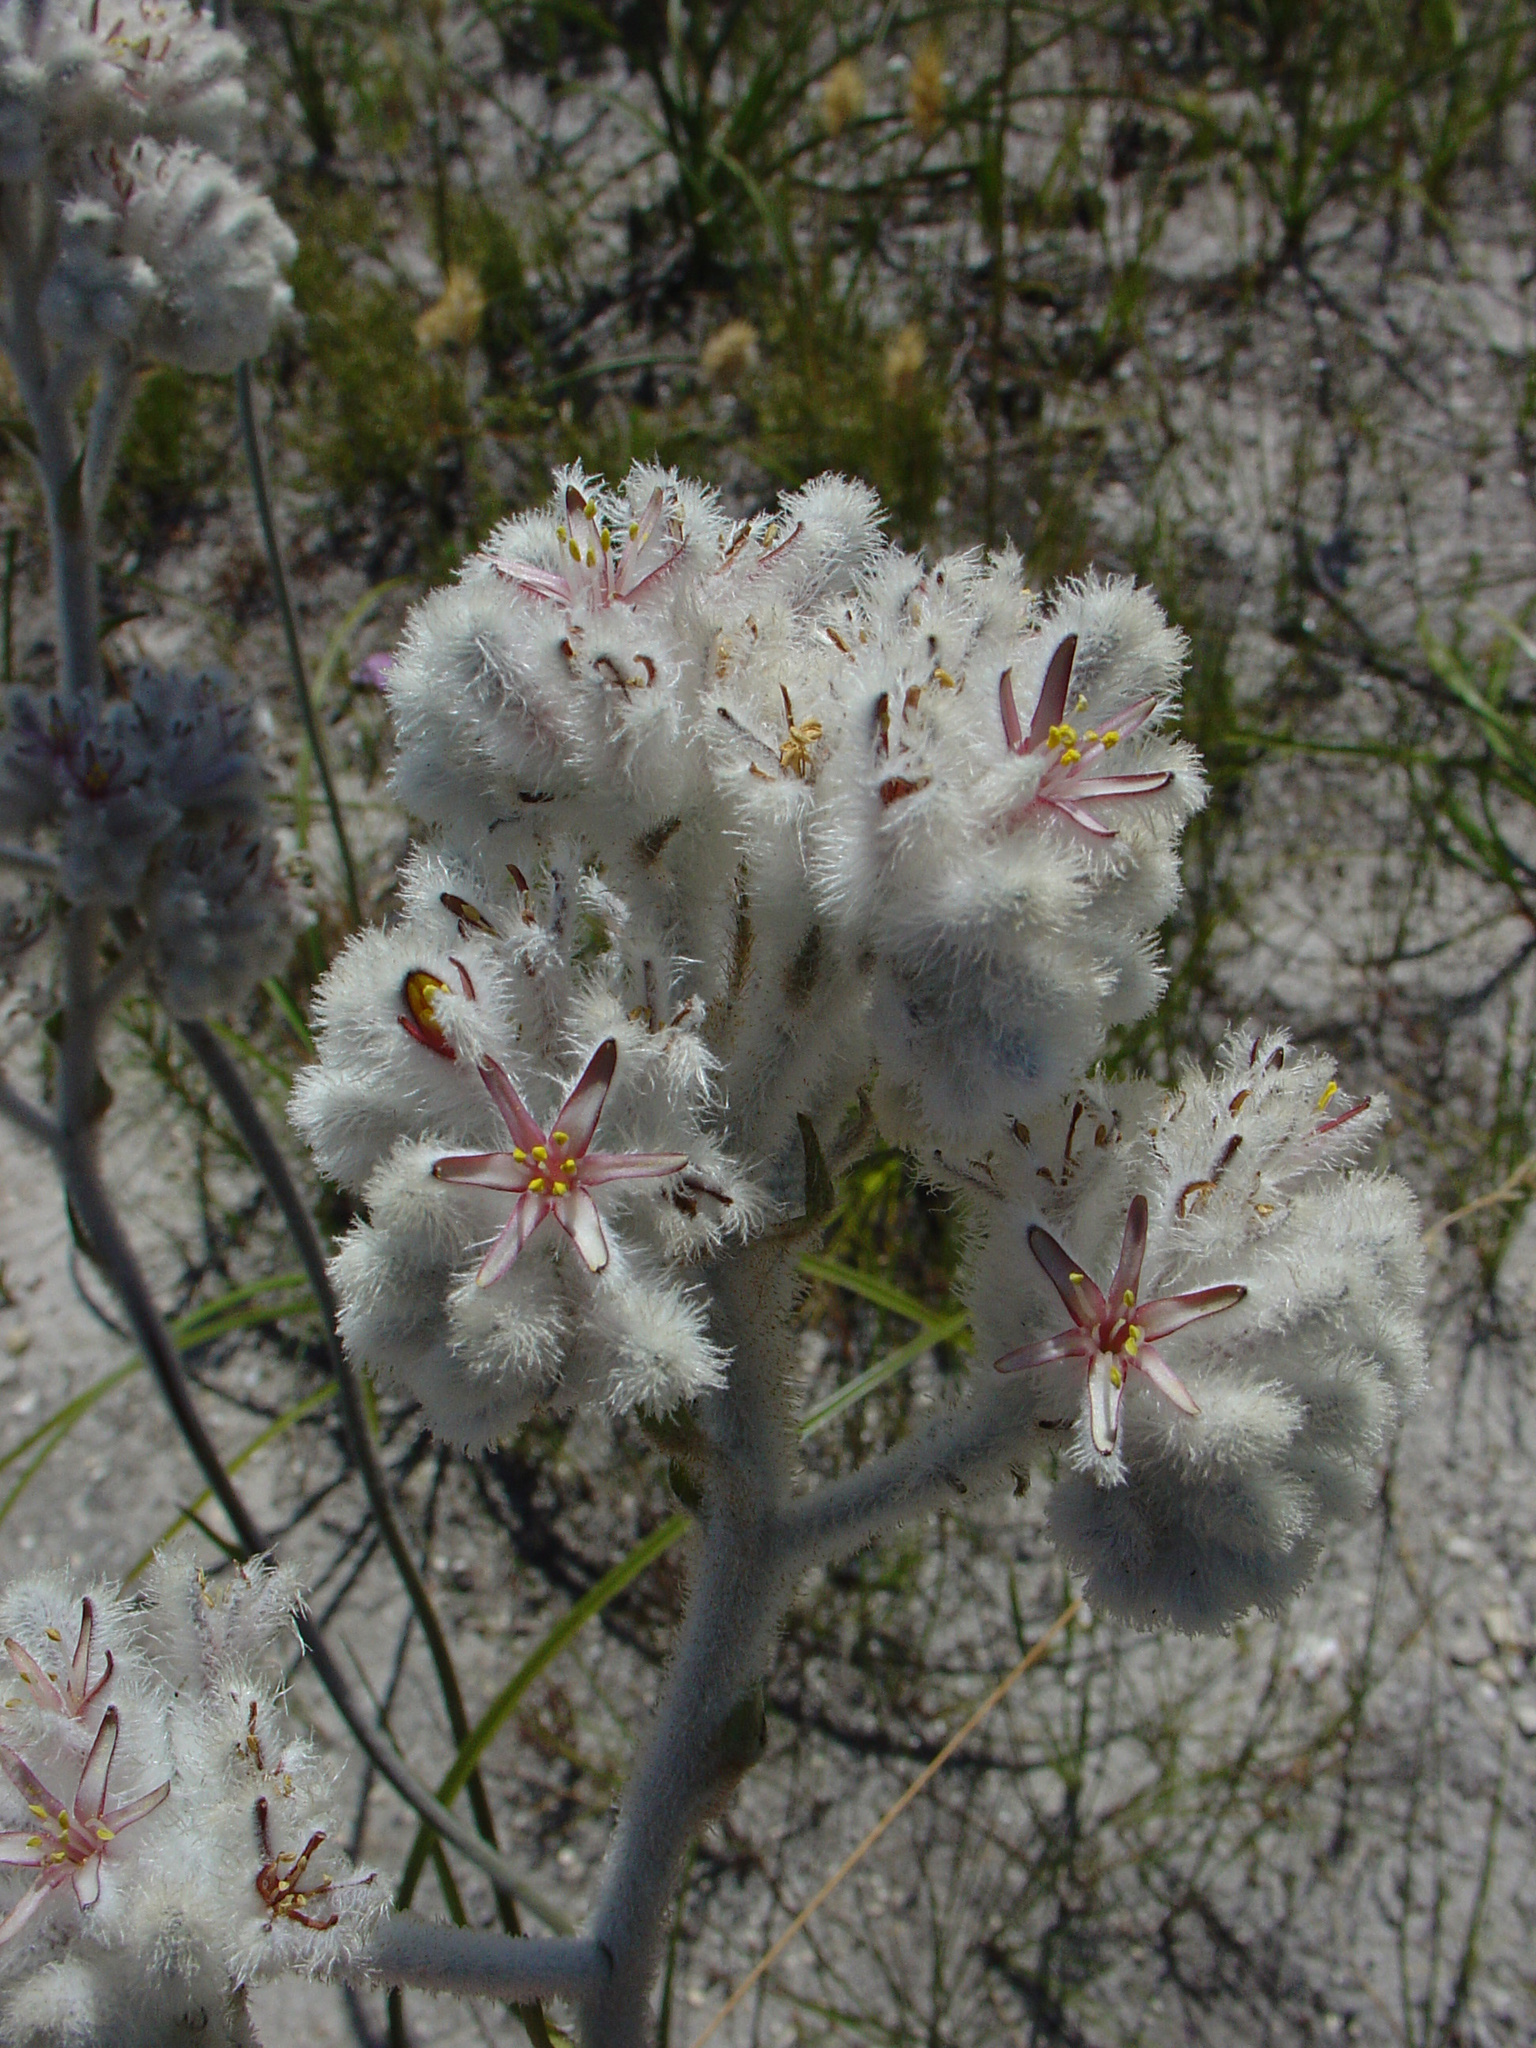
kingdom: Plantae
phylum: Tracheophyta
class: Liliopsida
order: Asparagales
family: Lanariaceae
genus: Lanaria
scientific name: Lanaria lanata
